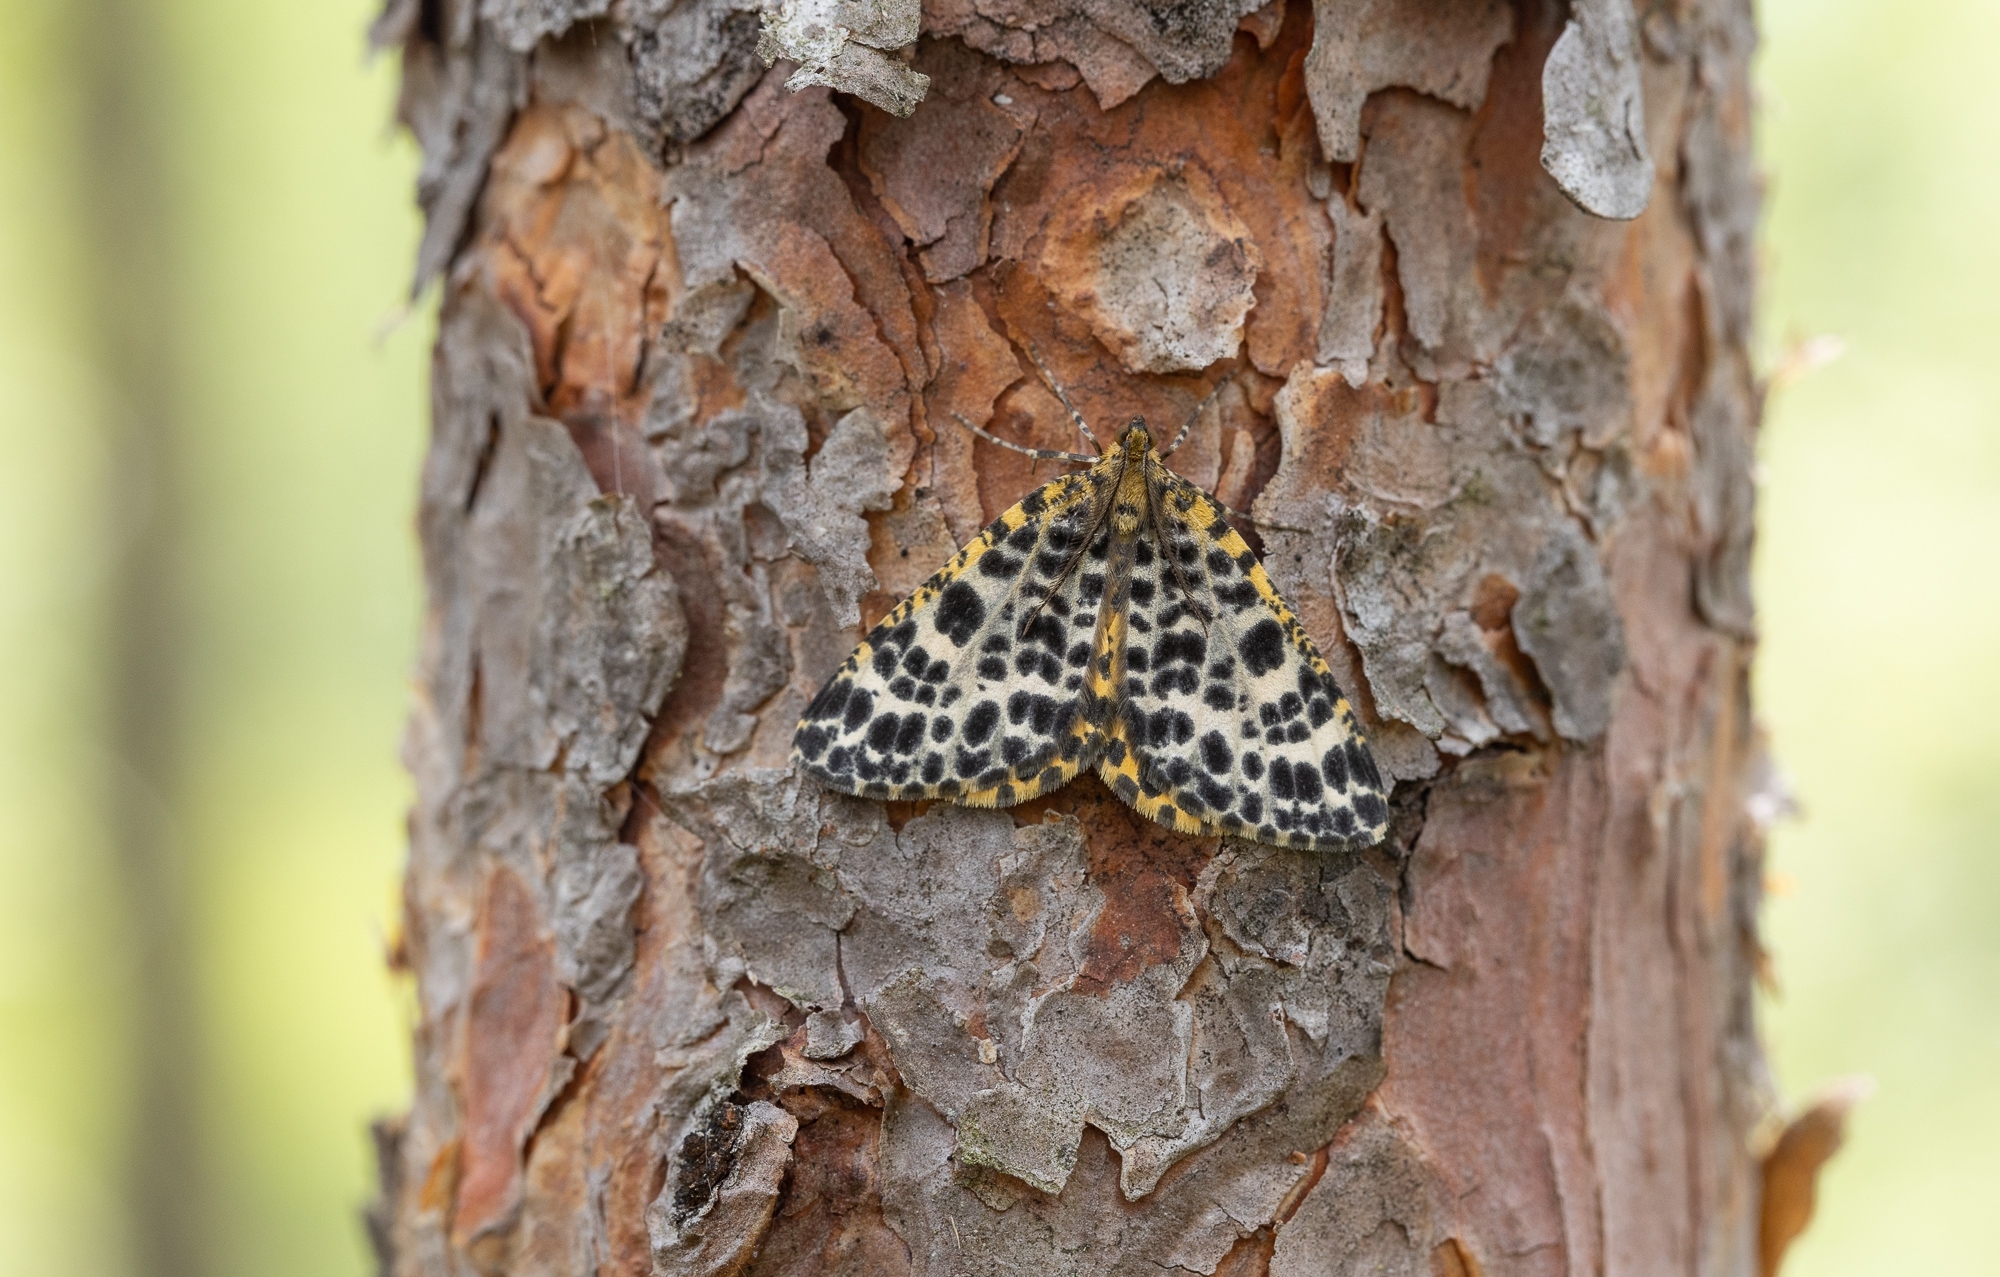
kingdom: Animalia
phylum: Arthropoda
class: Insecta
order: Lepidoptera
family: Geometridae
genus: Arichanna
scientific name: Arichanna melanaria
